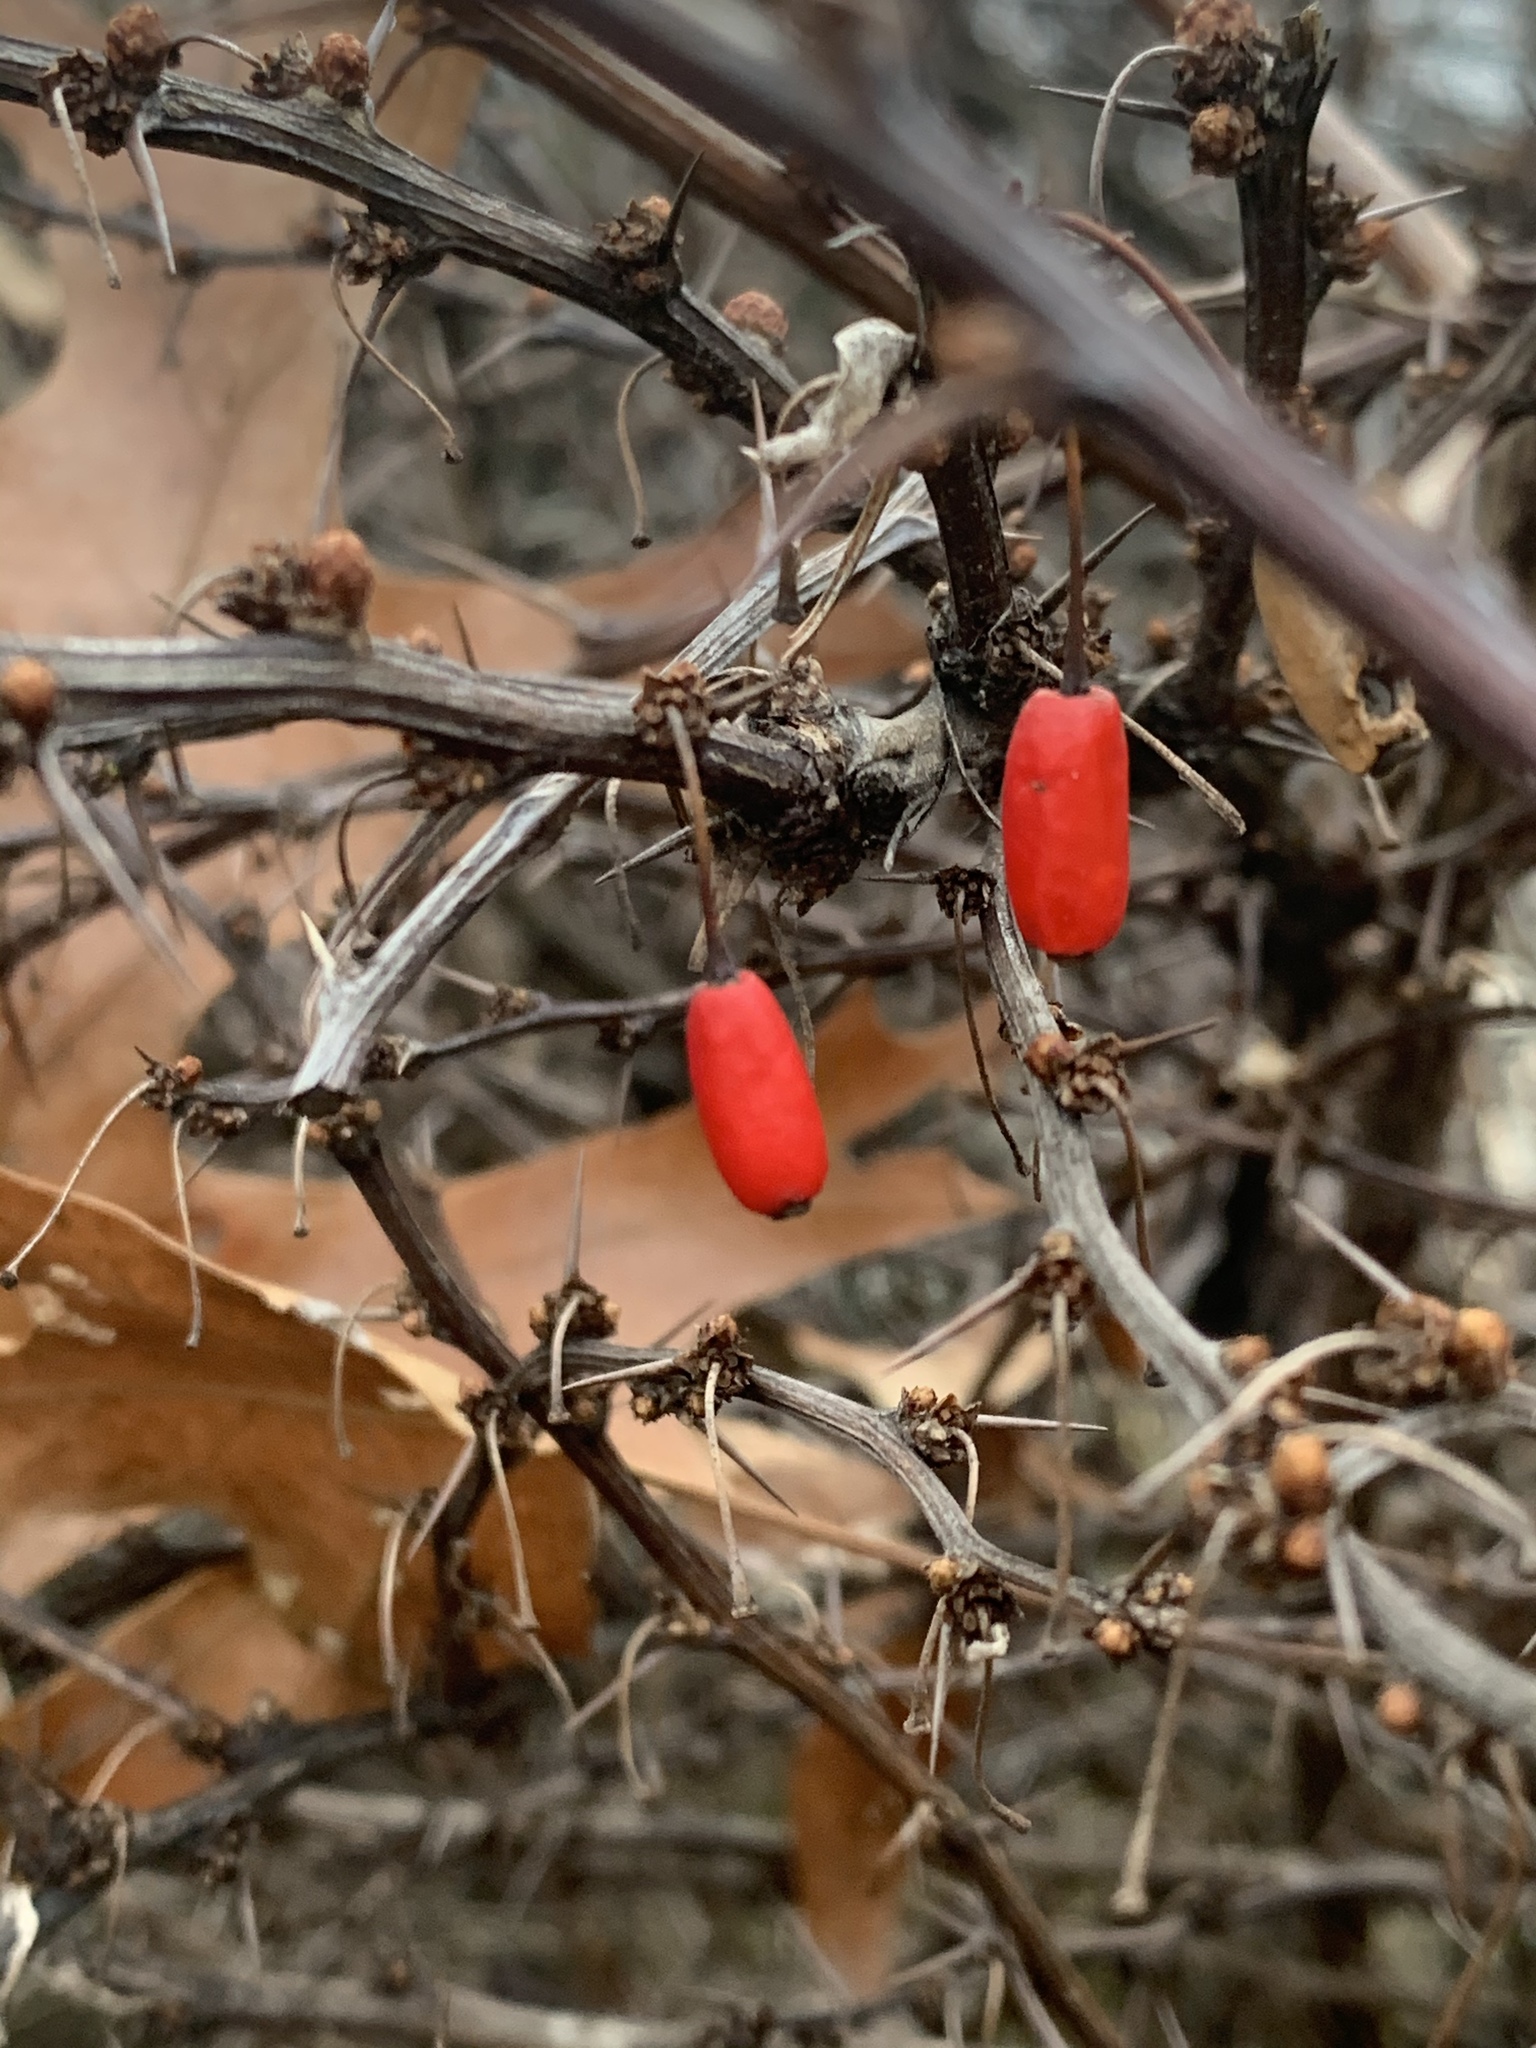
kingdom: Plantae
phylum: Tracheophyta
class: Magnoliopsida
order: Ranunculales
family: Berberidaceae
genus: Berberis
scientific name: Berberis thunbergii
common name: Japanese barberry
